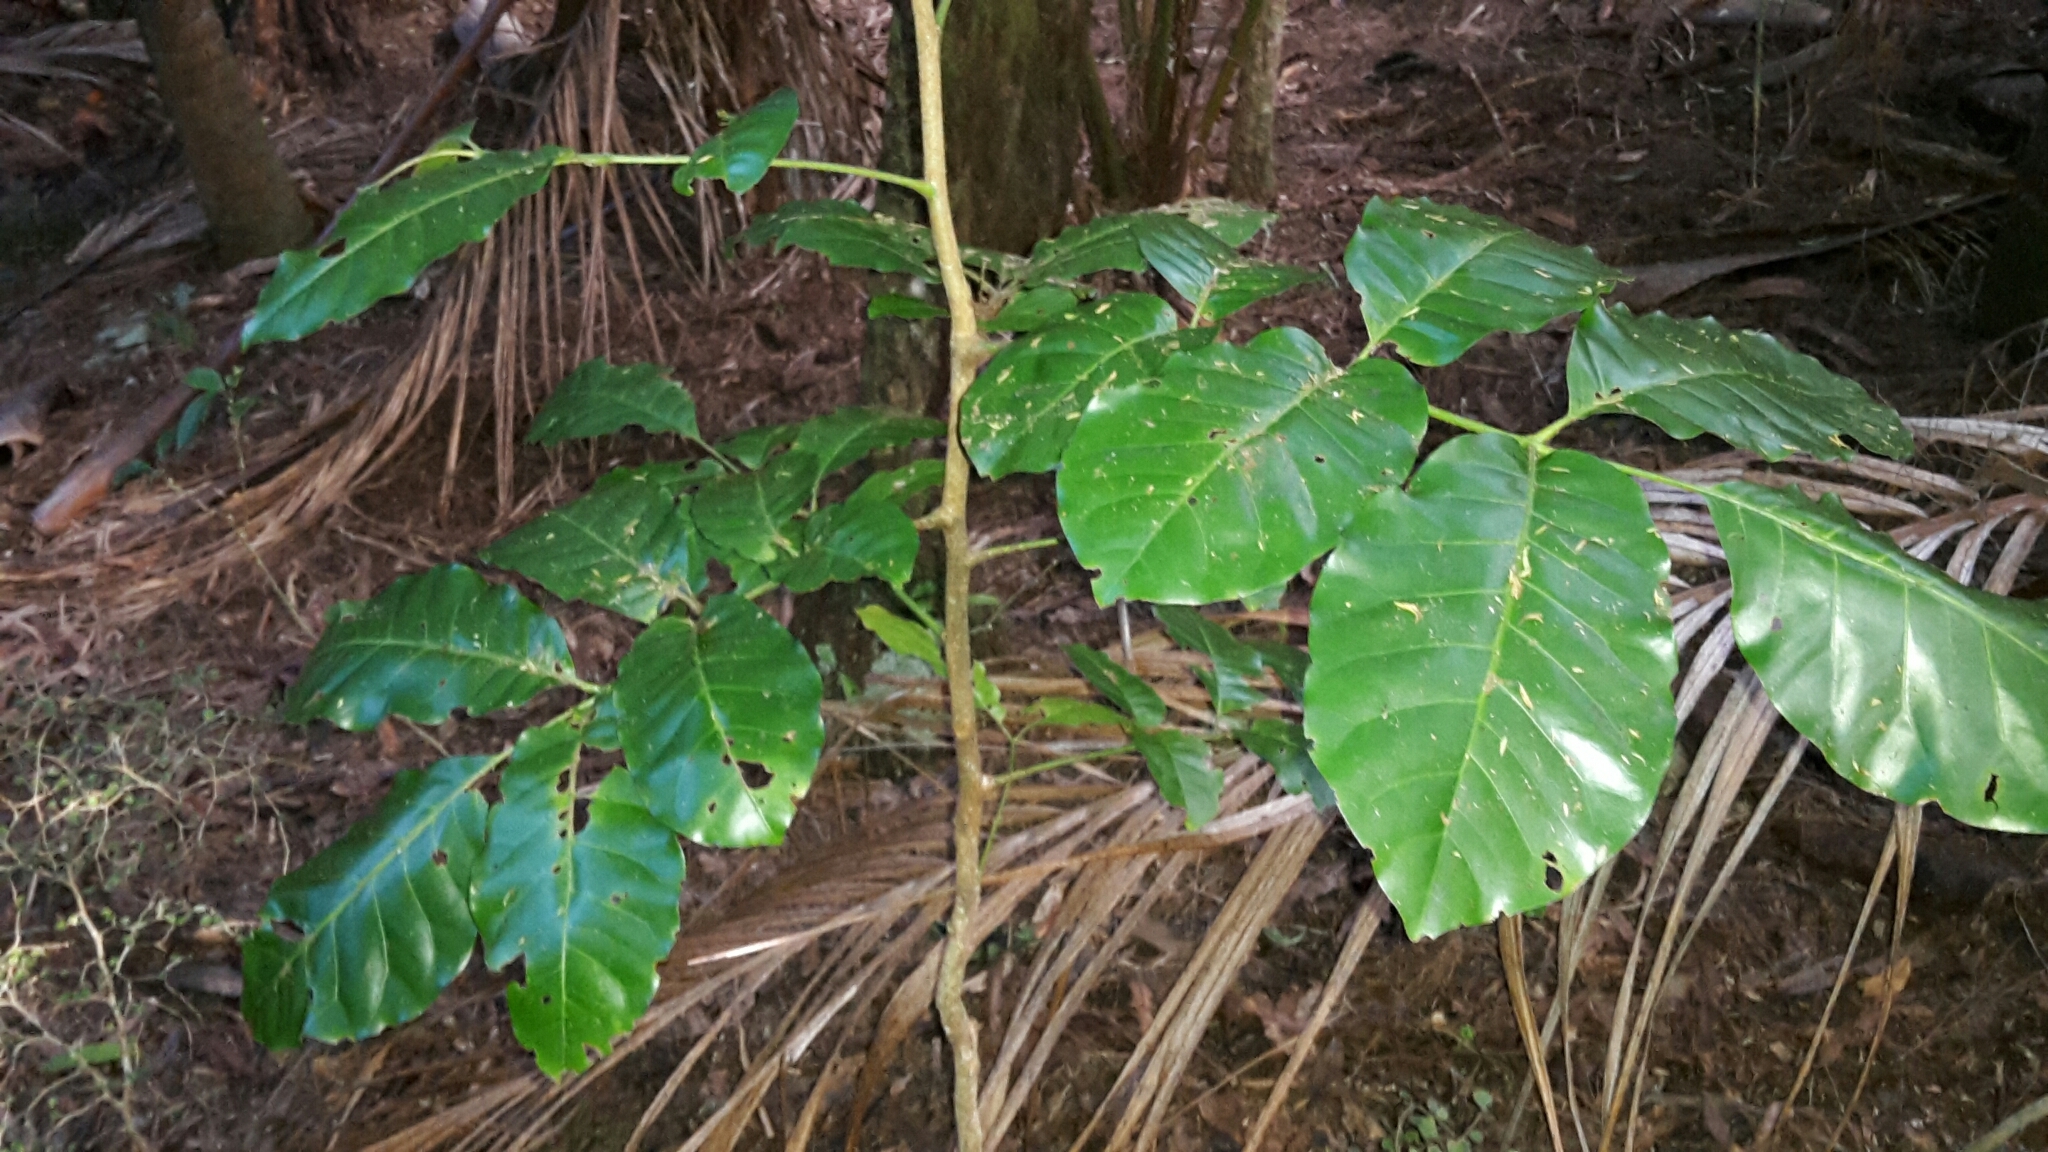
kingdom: Plantae
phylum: Tracheophyta
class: Magnoliopsida
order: Sapindales
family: Meliaceae
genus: Didymocheton
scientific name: Didymocheton spectabilis
